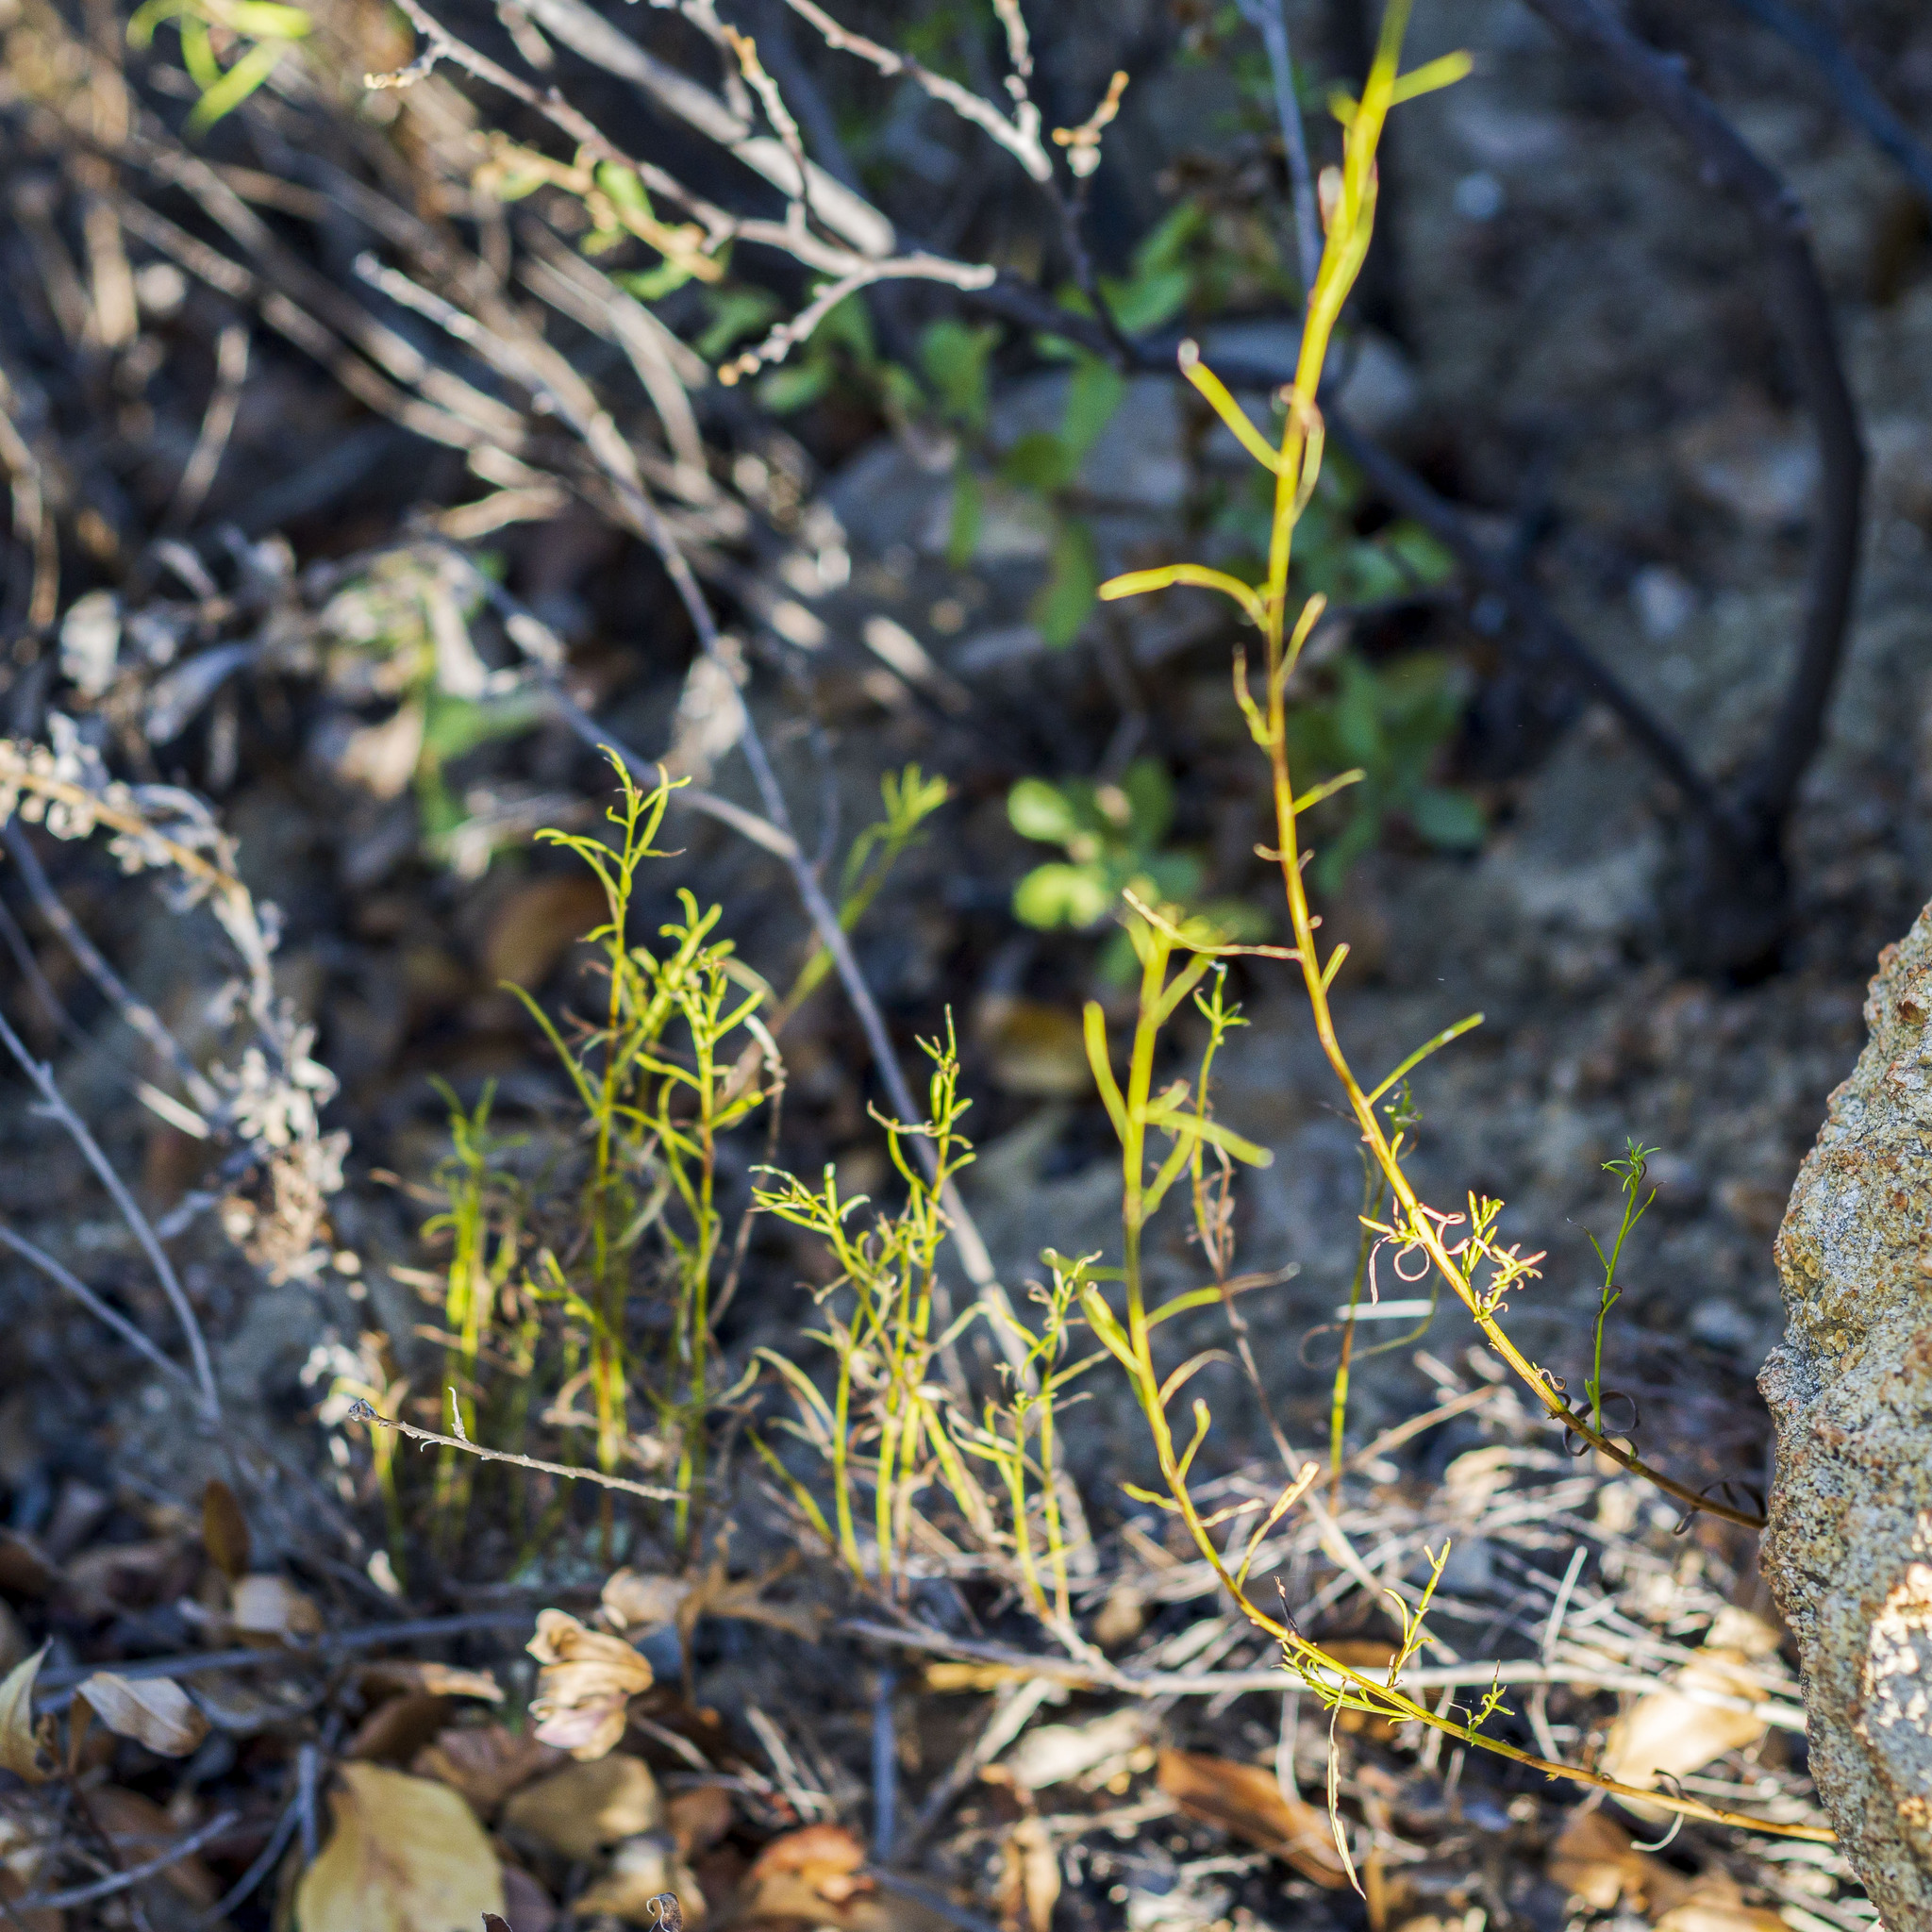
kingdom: Plantae
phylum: Tracheophyta
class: Magnoliopsida
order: Asterales
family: Asteraceae
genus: Baccharis
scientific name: Baccharis vanessae
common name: Encinitas baccharis
